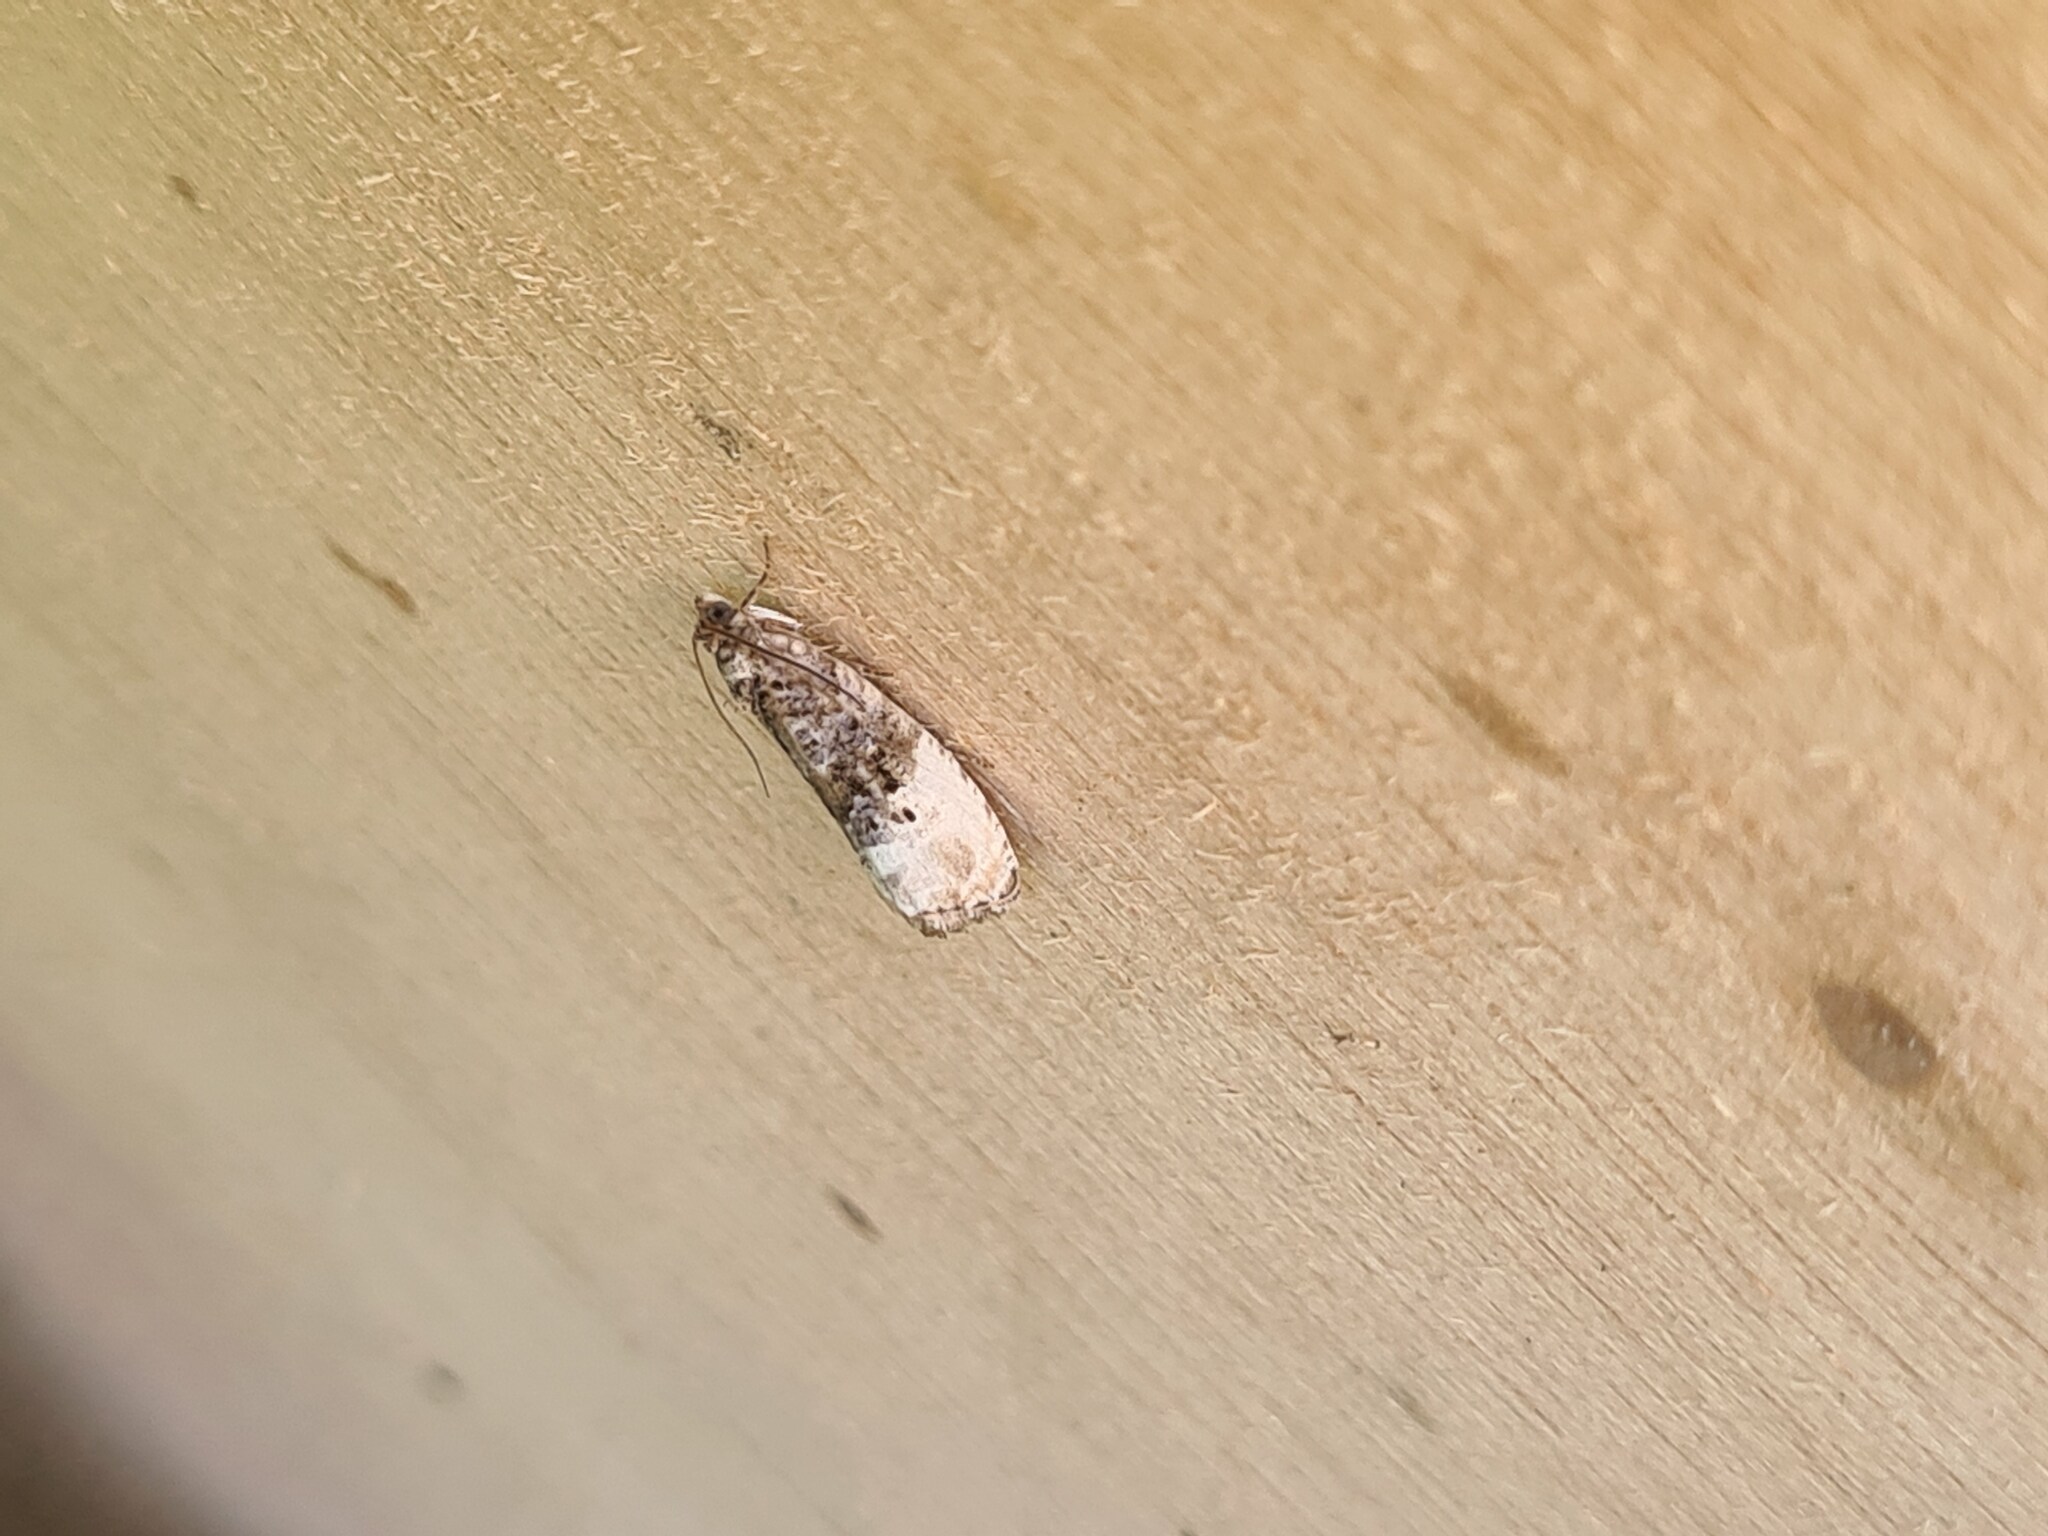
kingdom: Animalia
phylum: Arthropoda
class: Insecta
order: Lepidoptera
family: Tortricidae
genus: Hedya
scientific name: Hedya nubiferana
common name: Marbled orchard tortrix
